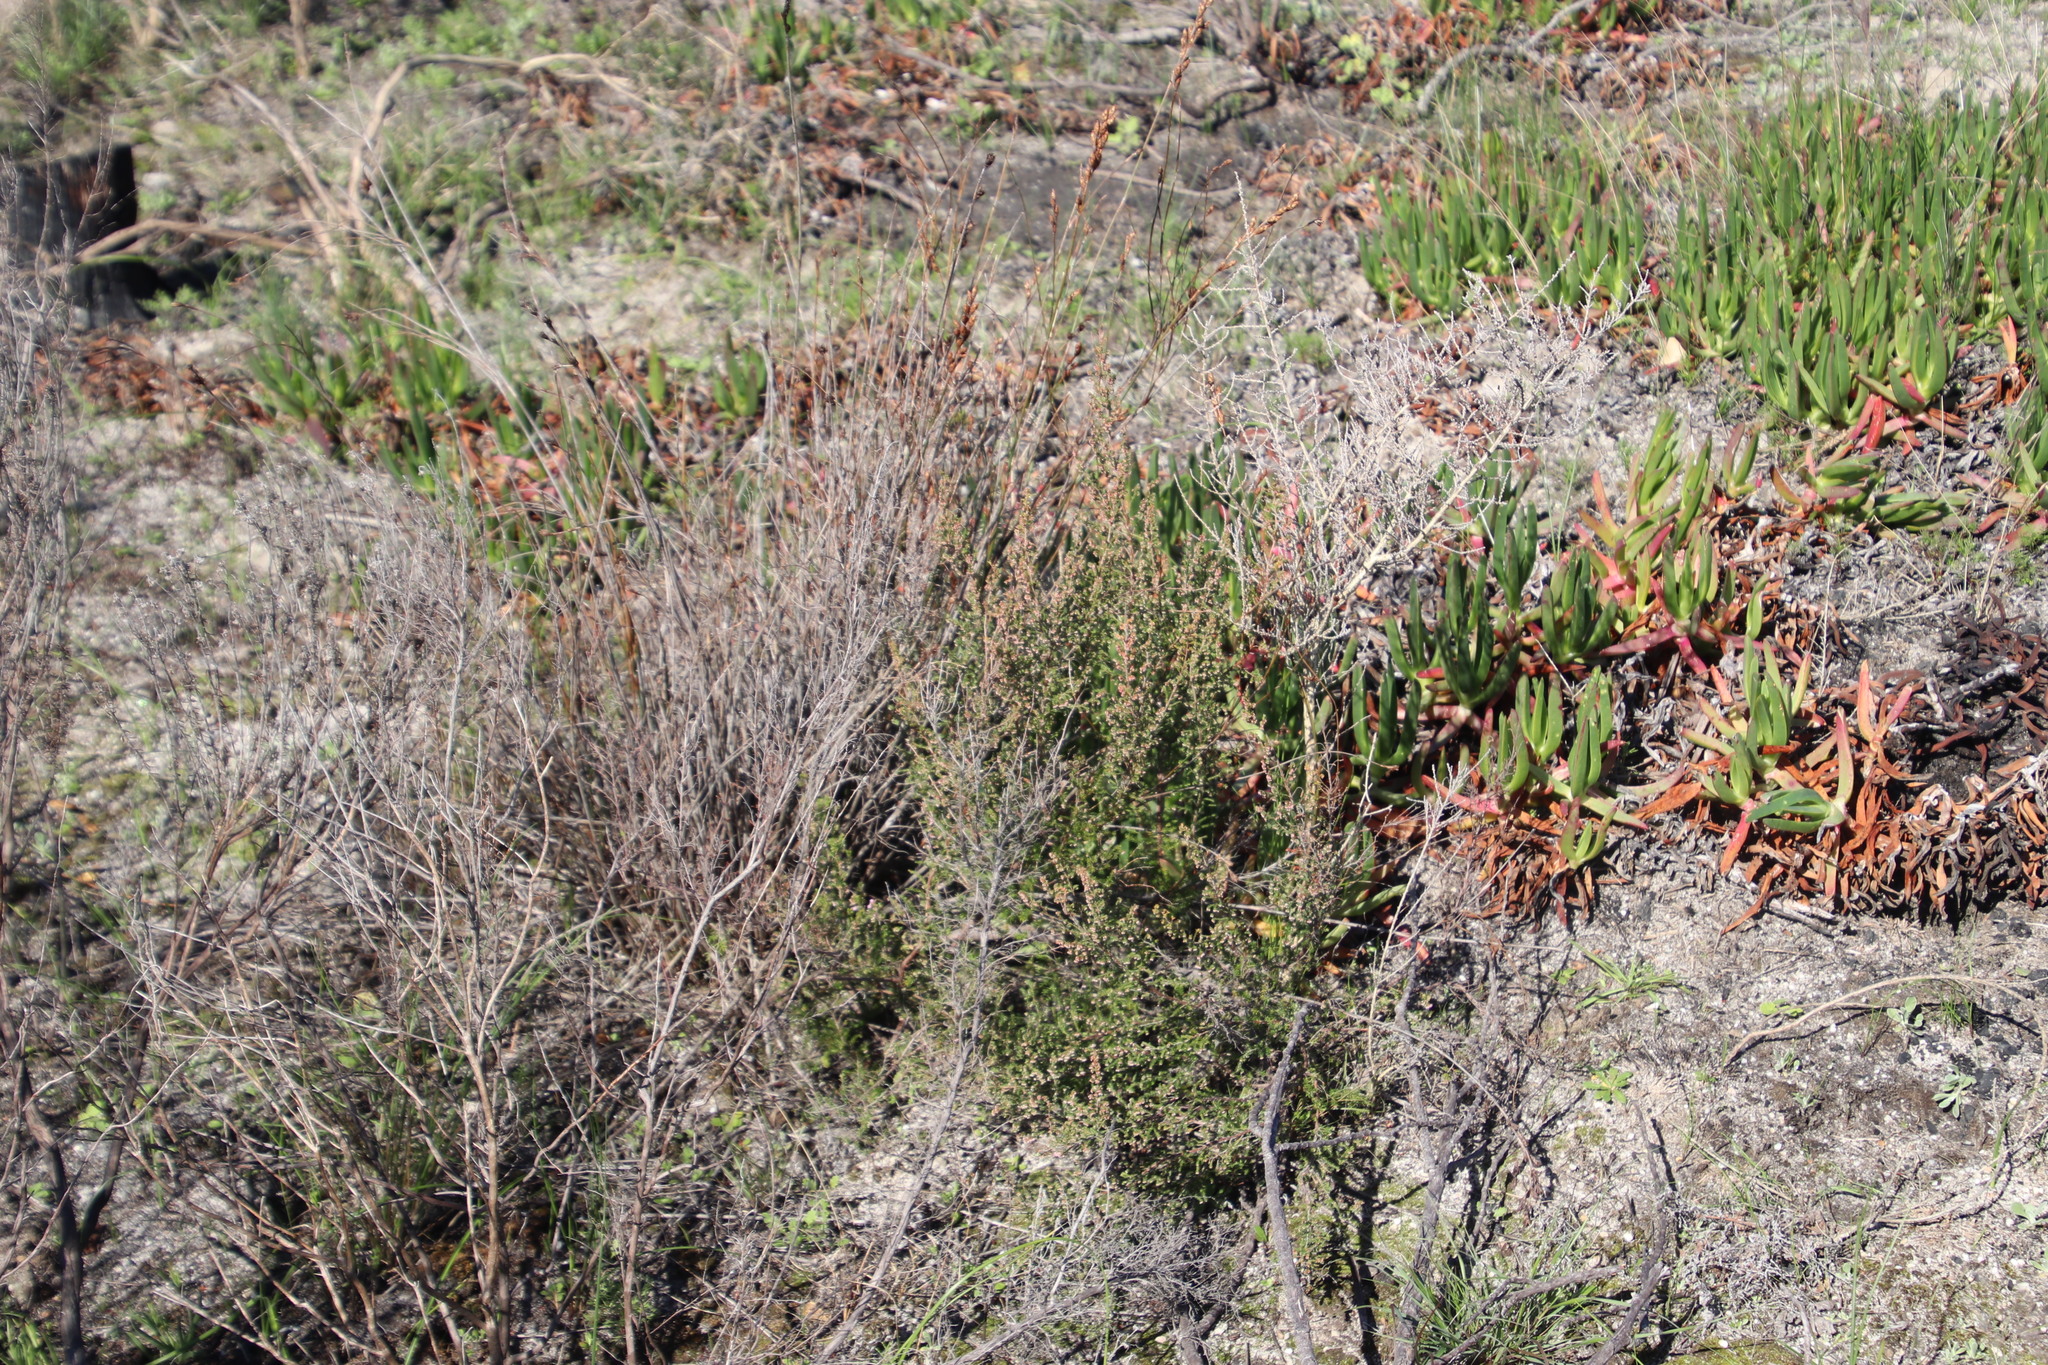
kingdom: Plantae
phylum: Tracheophyta
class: Magnoliopsida
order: Ericales
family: Ericaceae
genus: Erica
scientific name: Erica mauritanica
